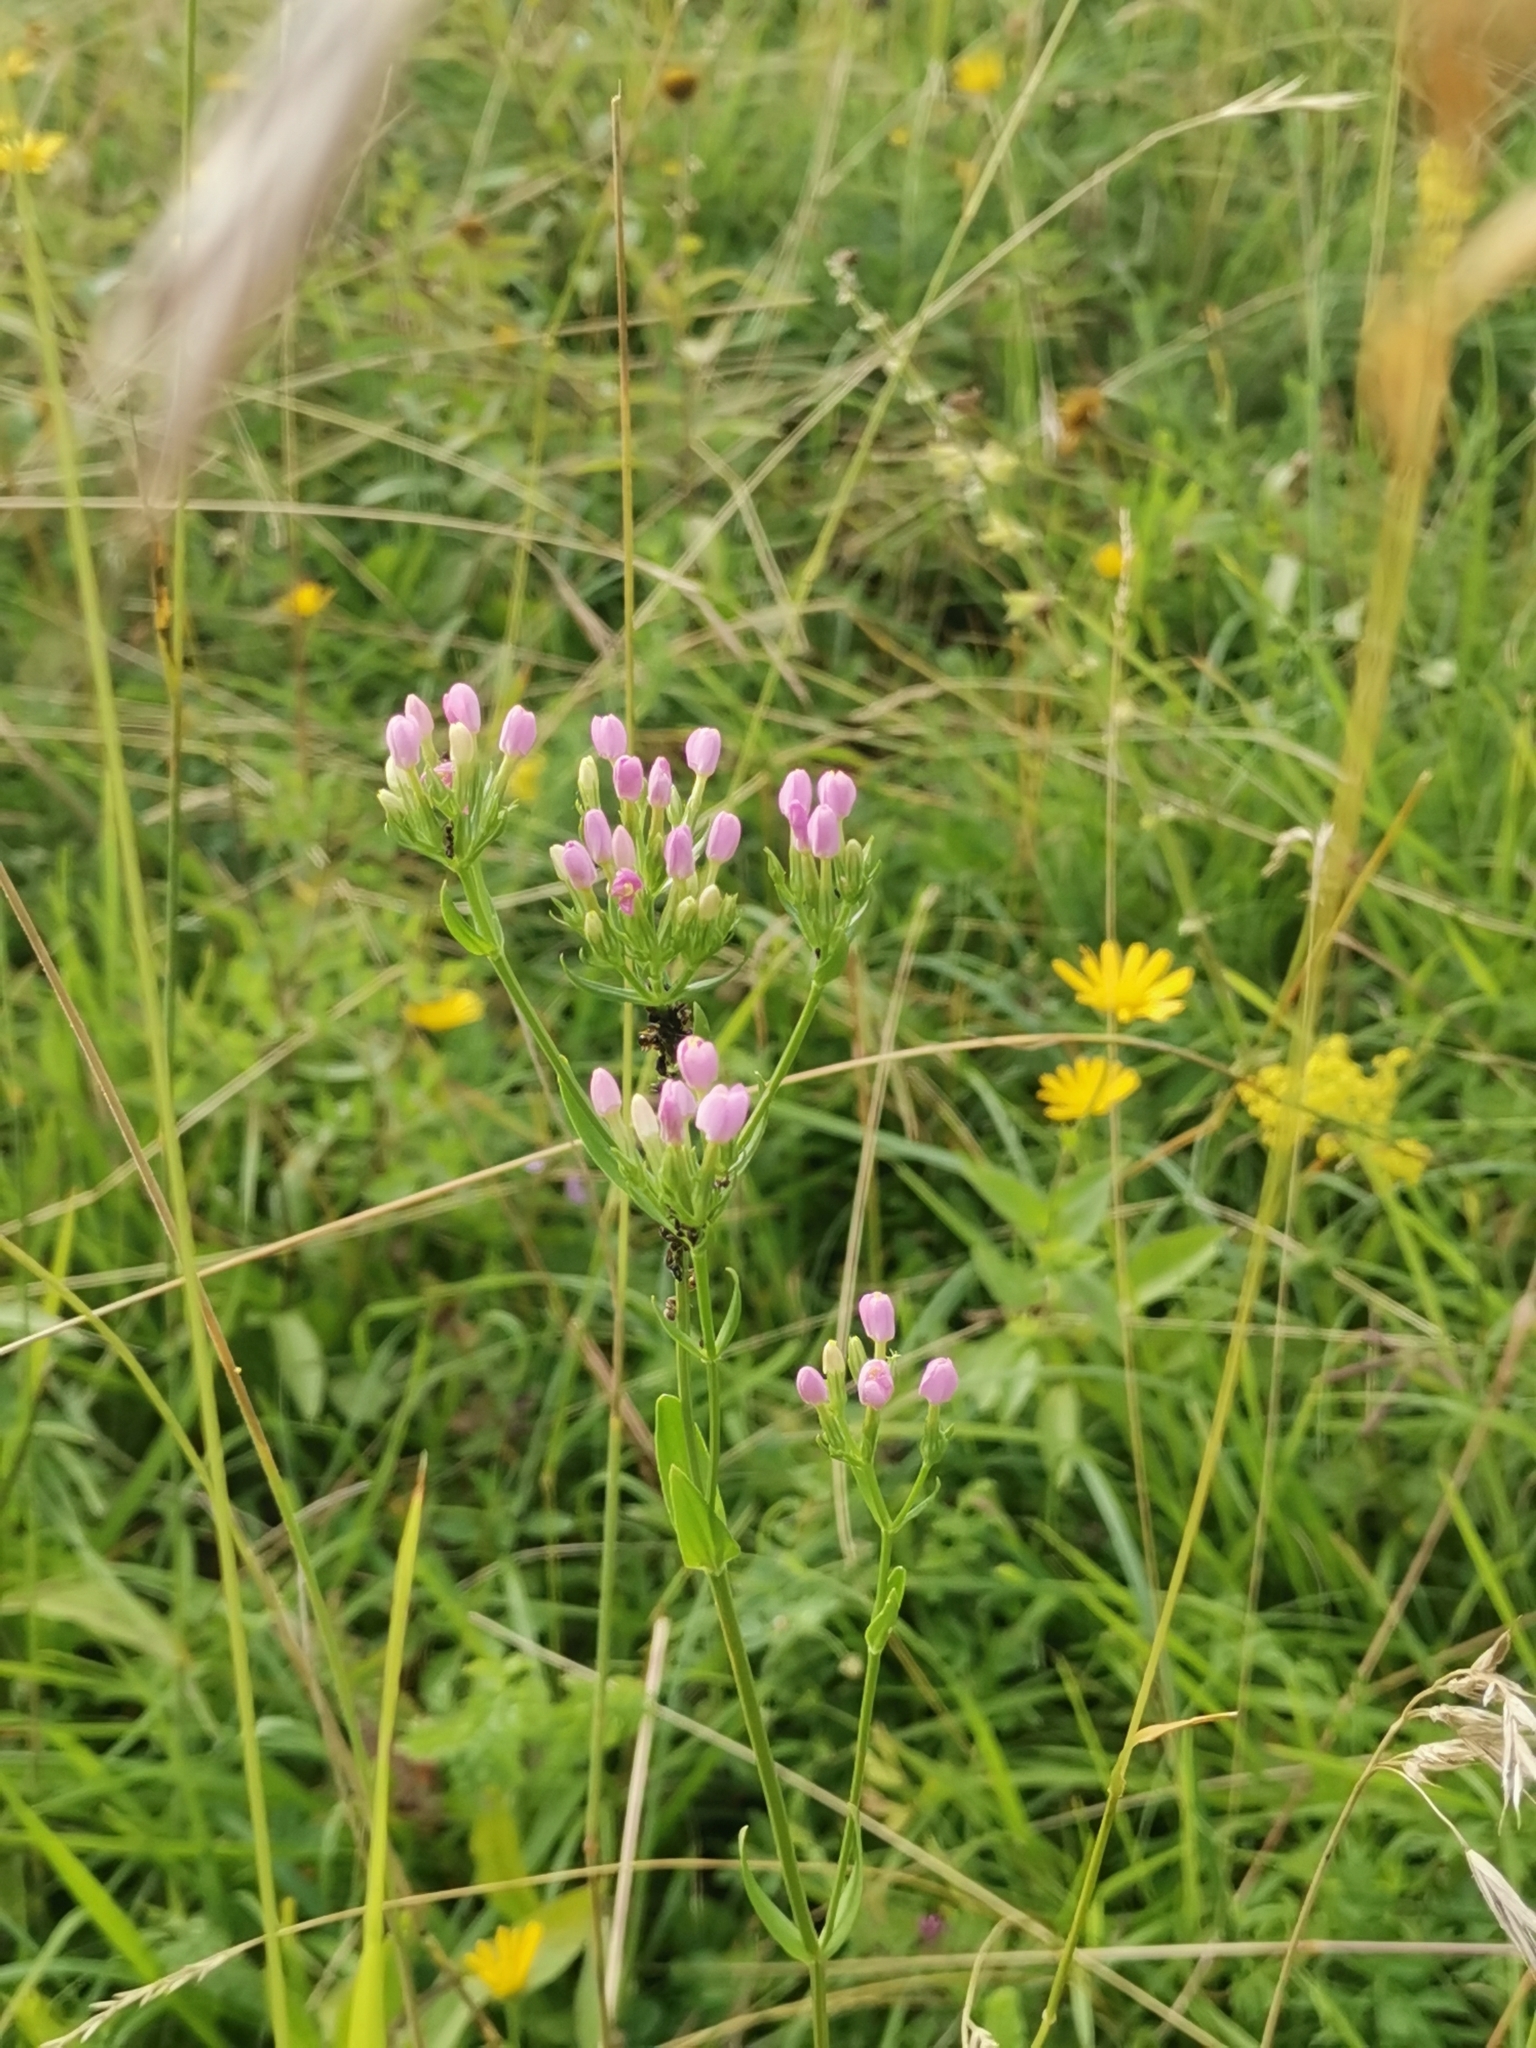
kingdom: Plantae
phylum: Tracheophyta
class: Magnoliopsida
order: Gentianales
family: Gentianaceae
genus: Centaurium
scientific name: Centaurium erythraea
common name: Common centaury
